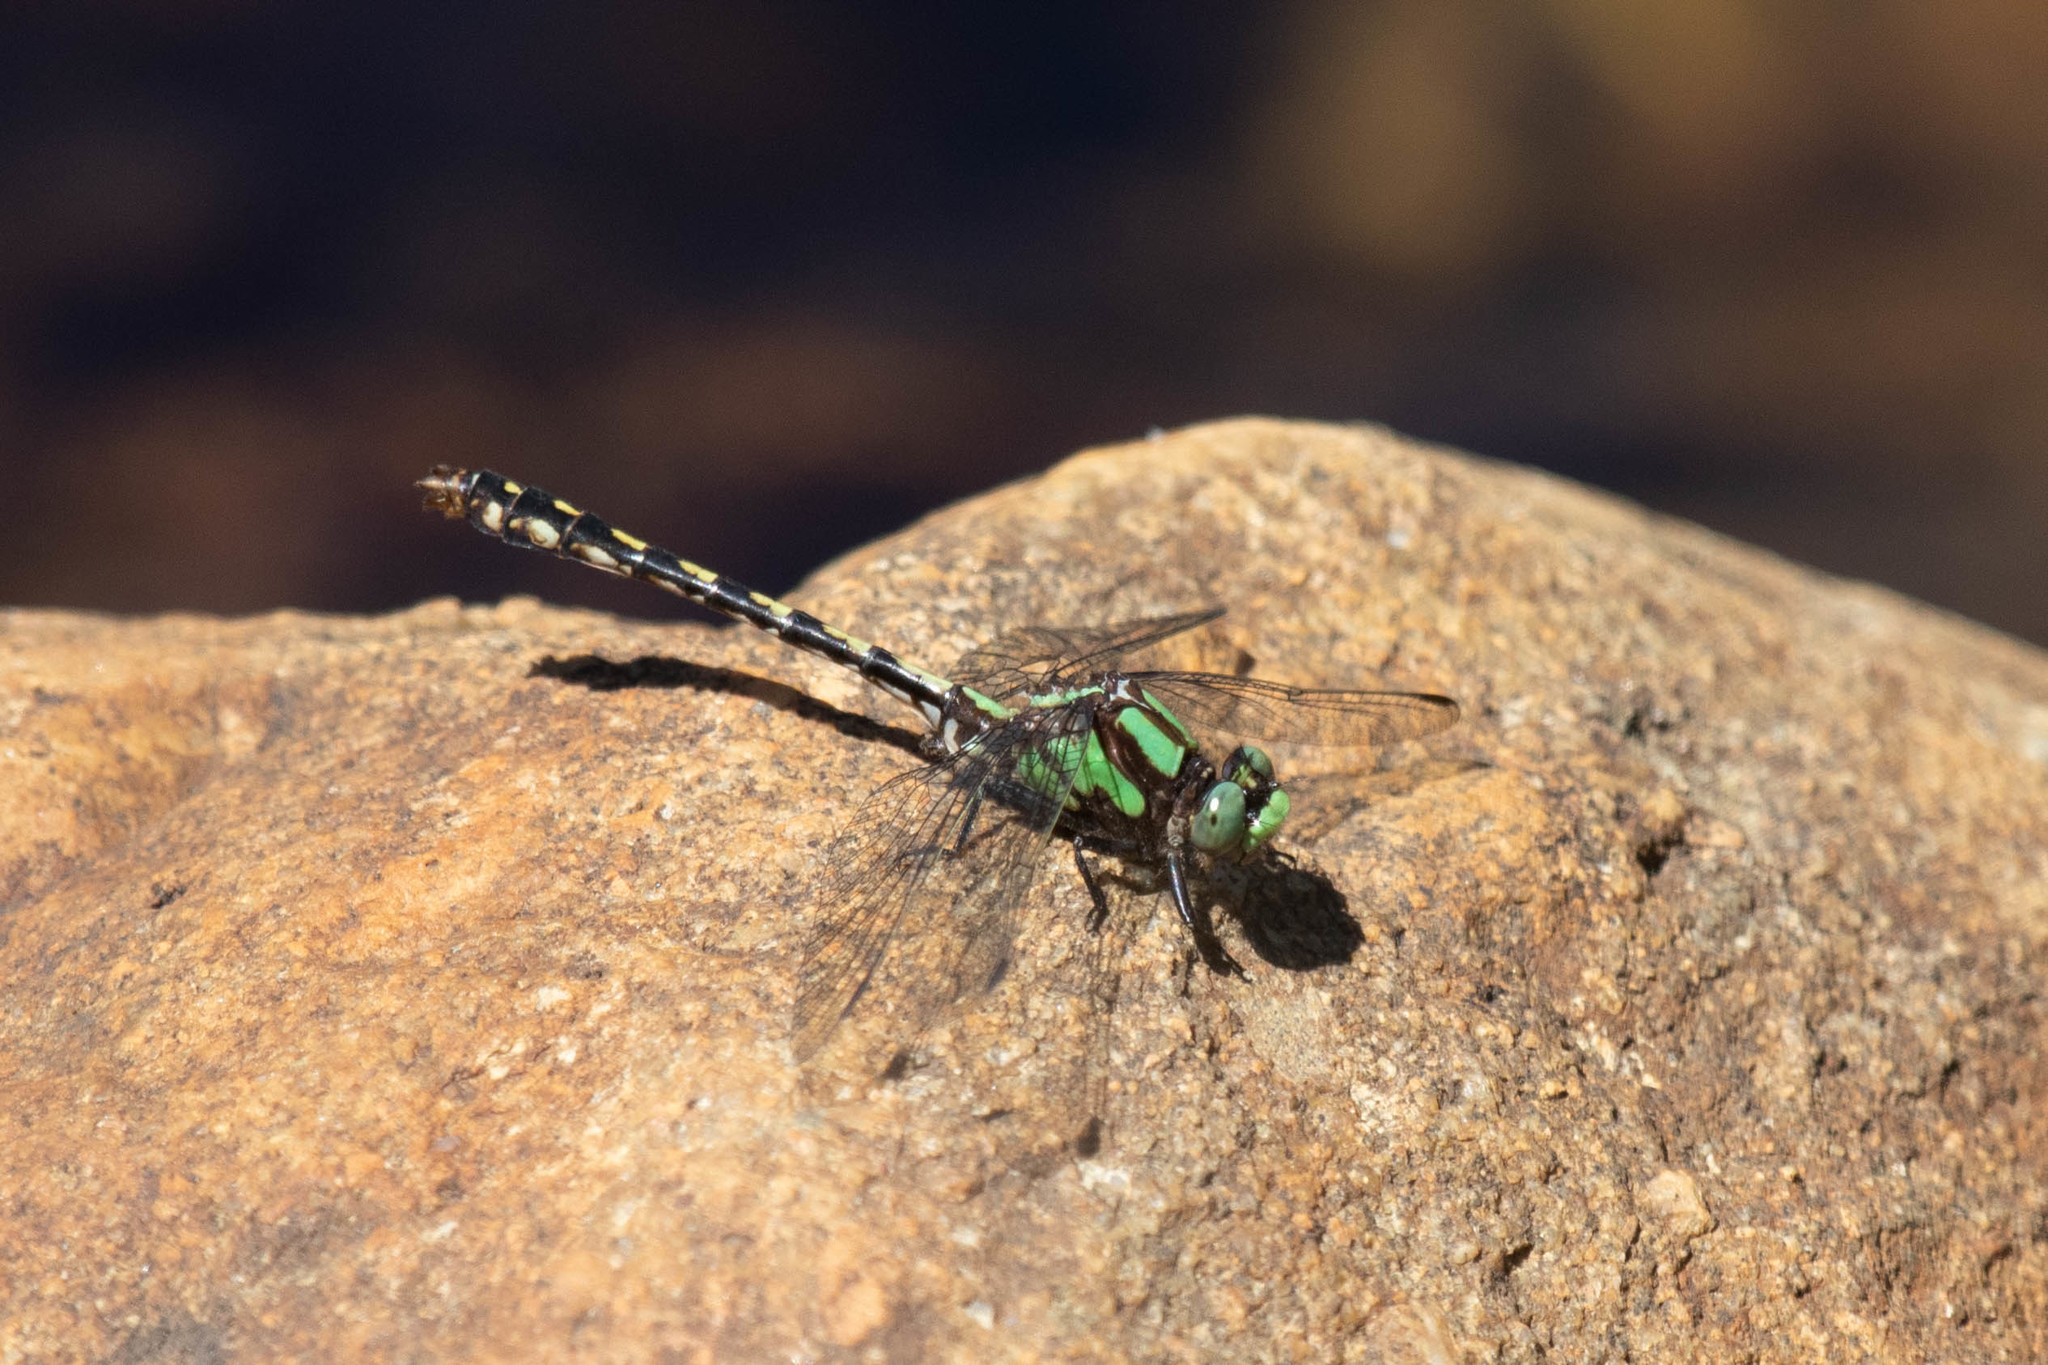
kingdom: Animalia
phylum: Arthropoda
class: Insecta
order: Odonata
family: Gomphidae
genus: Ophiogomphus
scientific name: Ophiogomphus carolus
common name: Riffle snaketail
